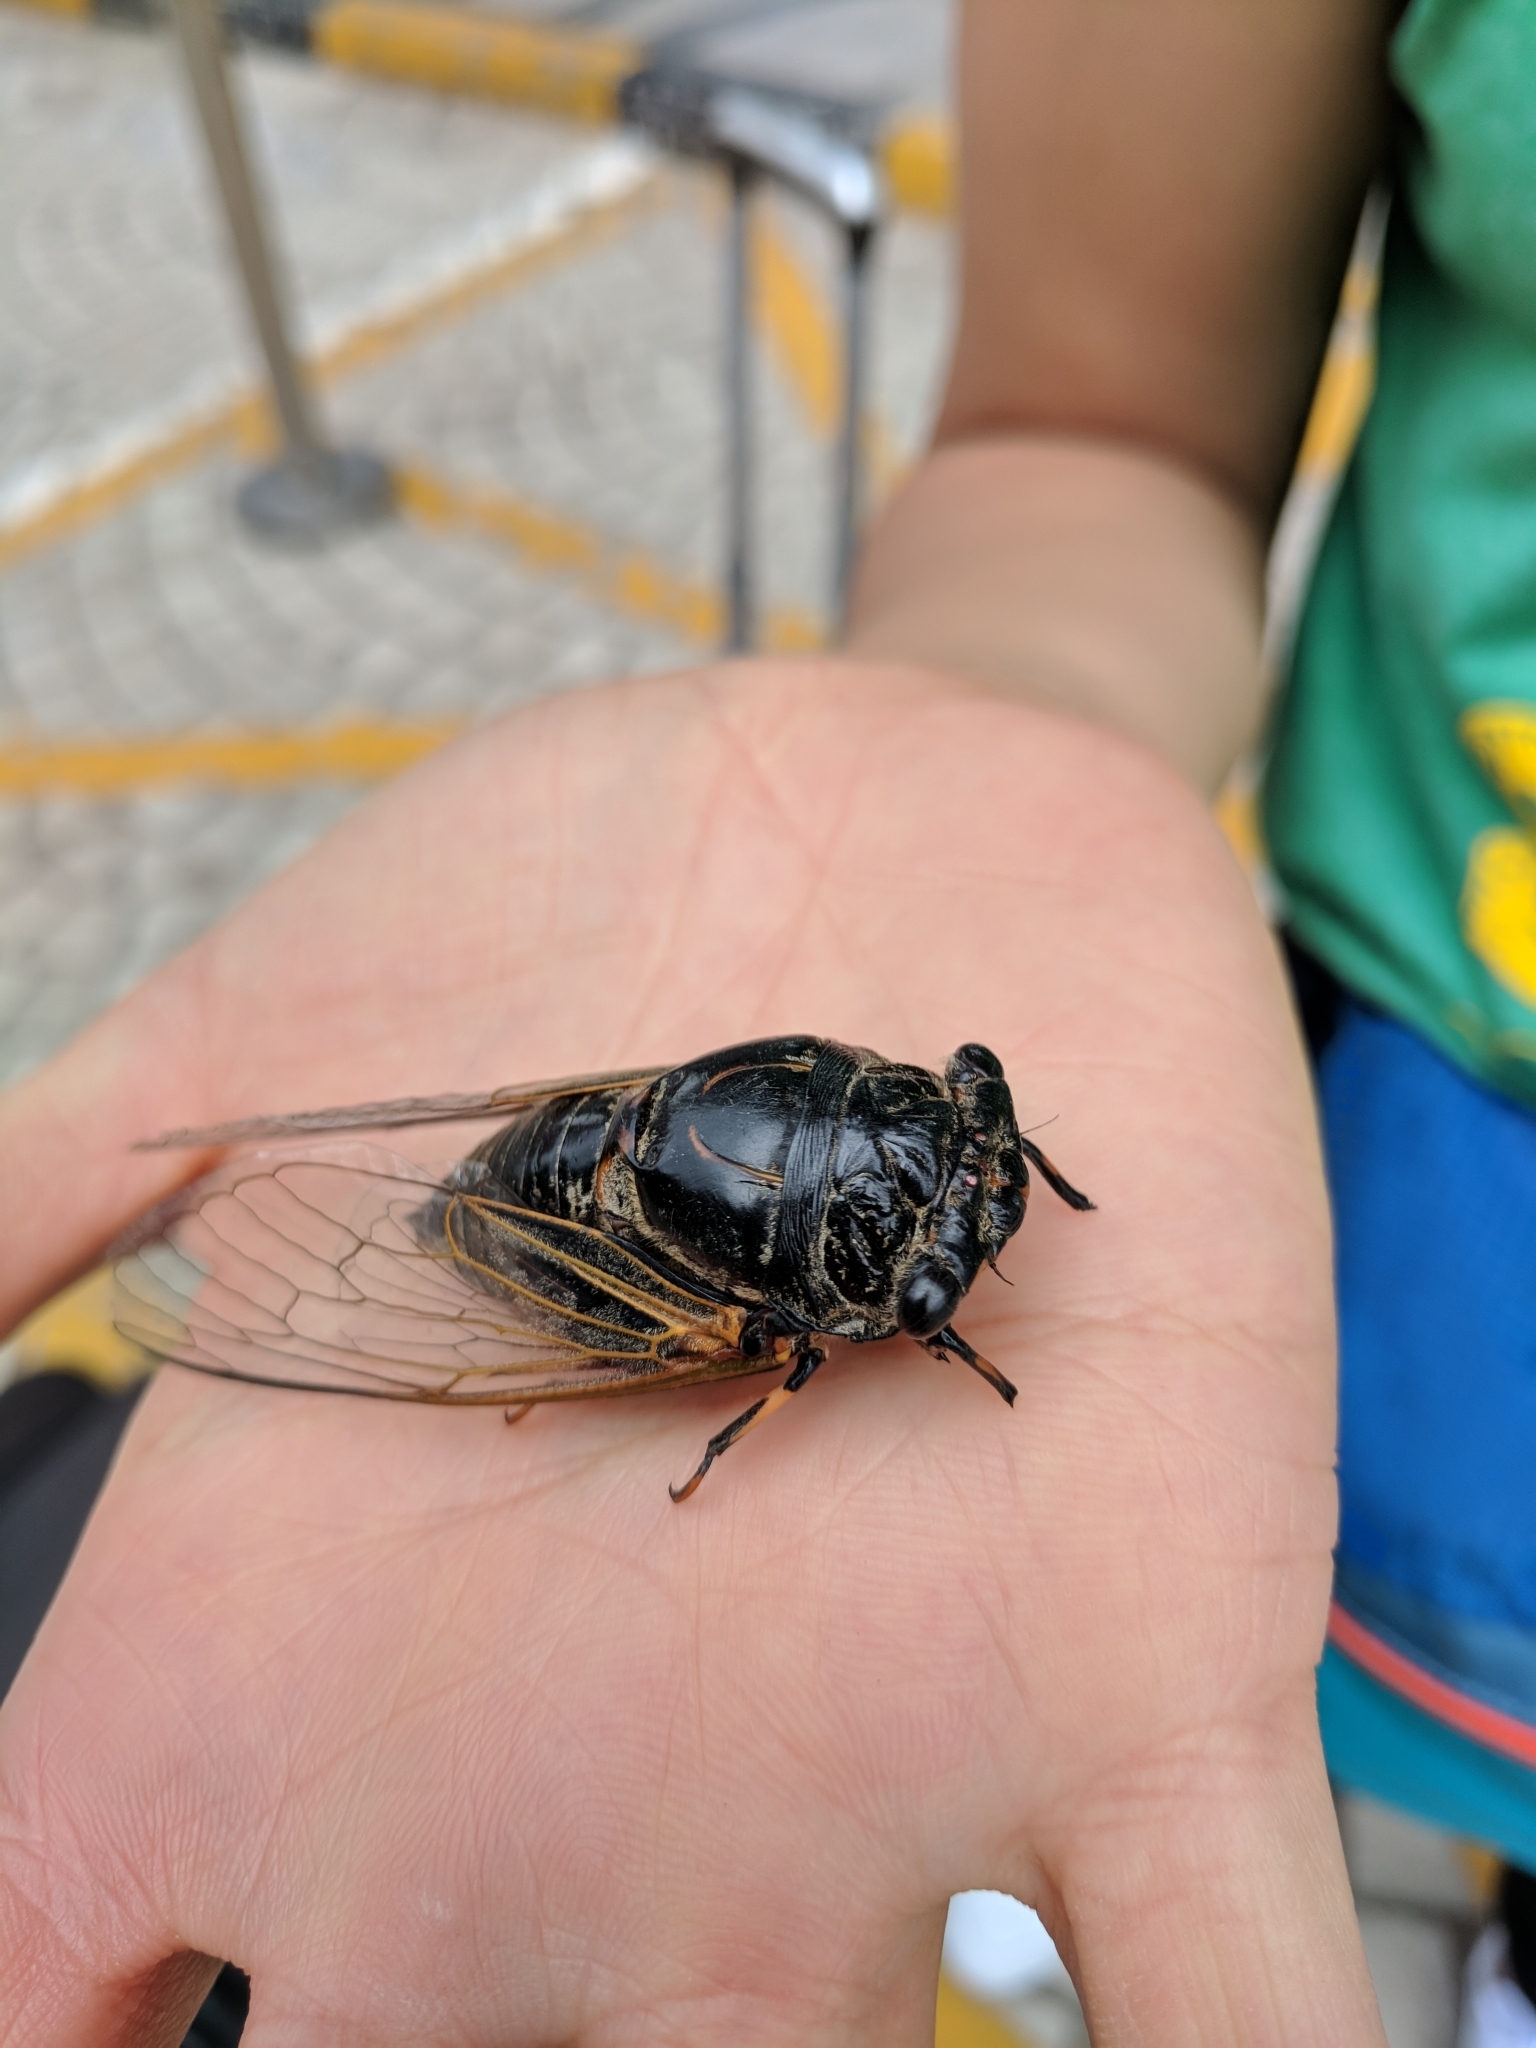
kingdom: Animalia
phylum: Arthropoda
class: Insecta
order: Hemiptera
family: Cicadidae
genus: Cryptotympana
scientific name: Cryptotympana atrata
